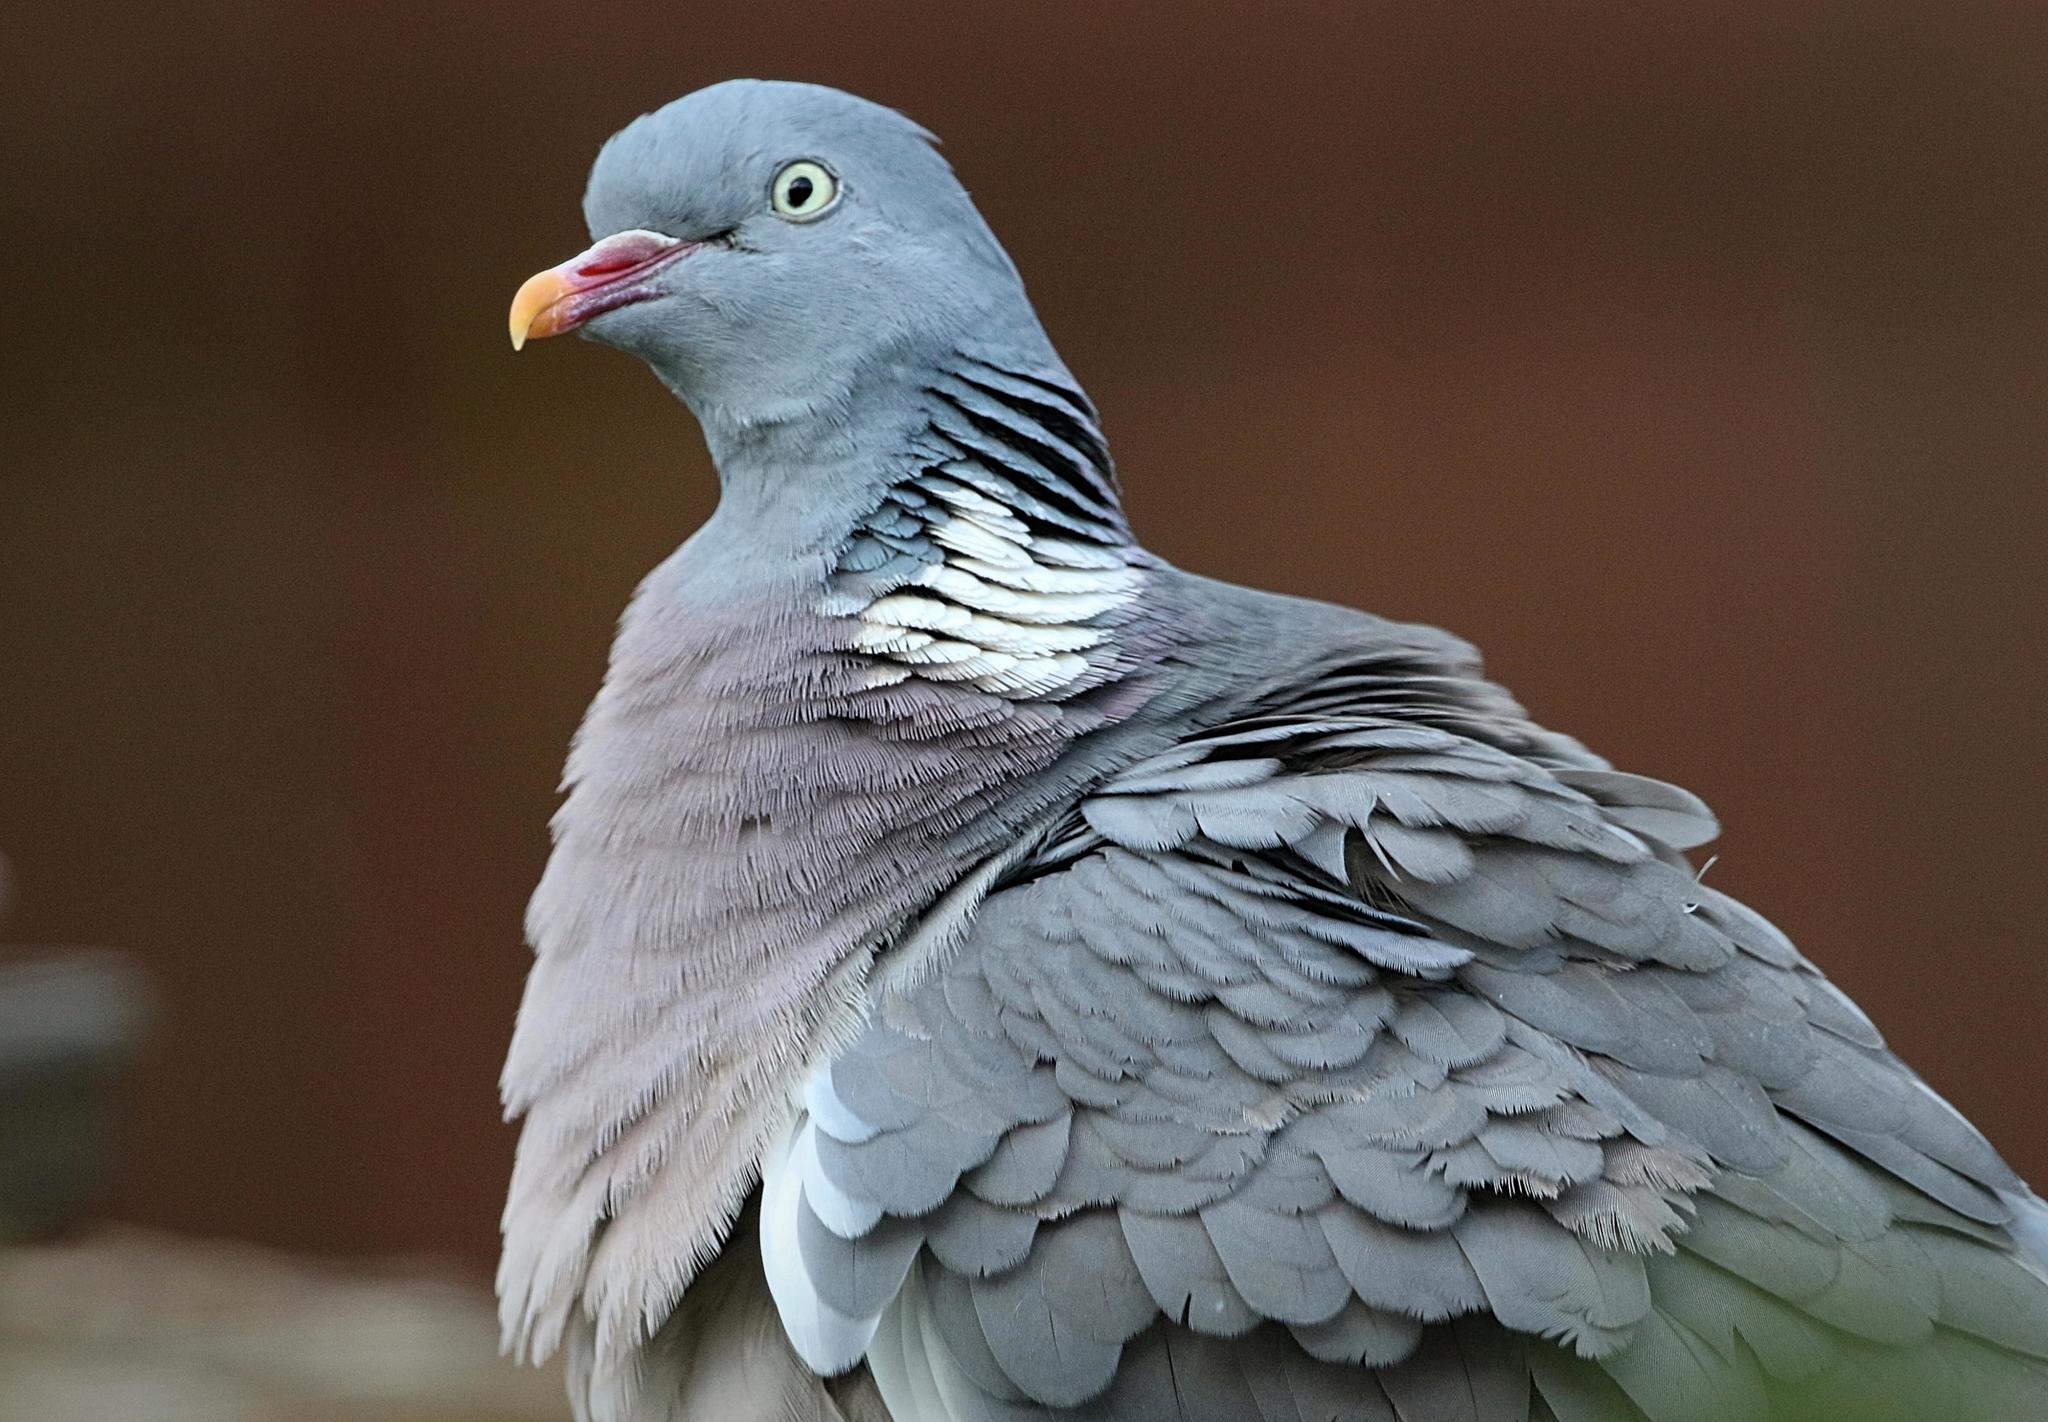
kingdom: Animalia
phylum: Chordata
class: Aves
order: Columbiformes
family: Columbidae
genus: Columba
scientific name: Columba palumbus
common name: Common wood pigeon
